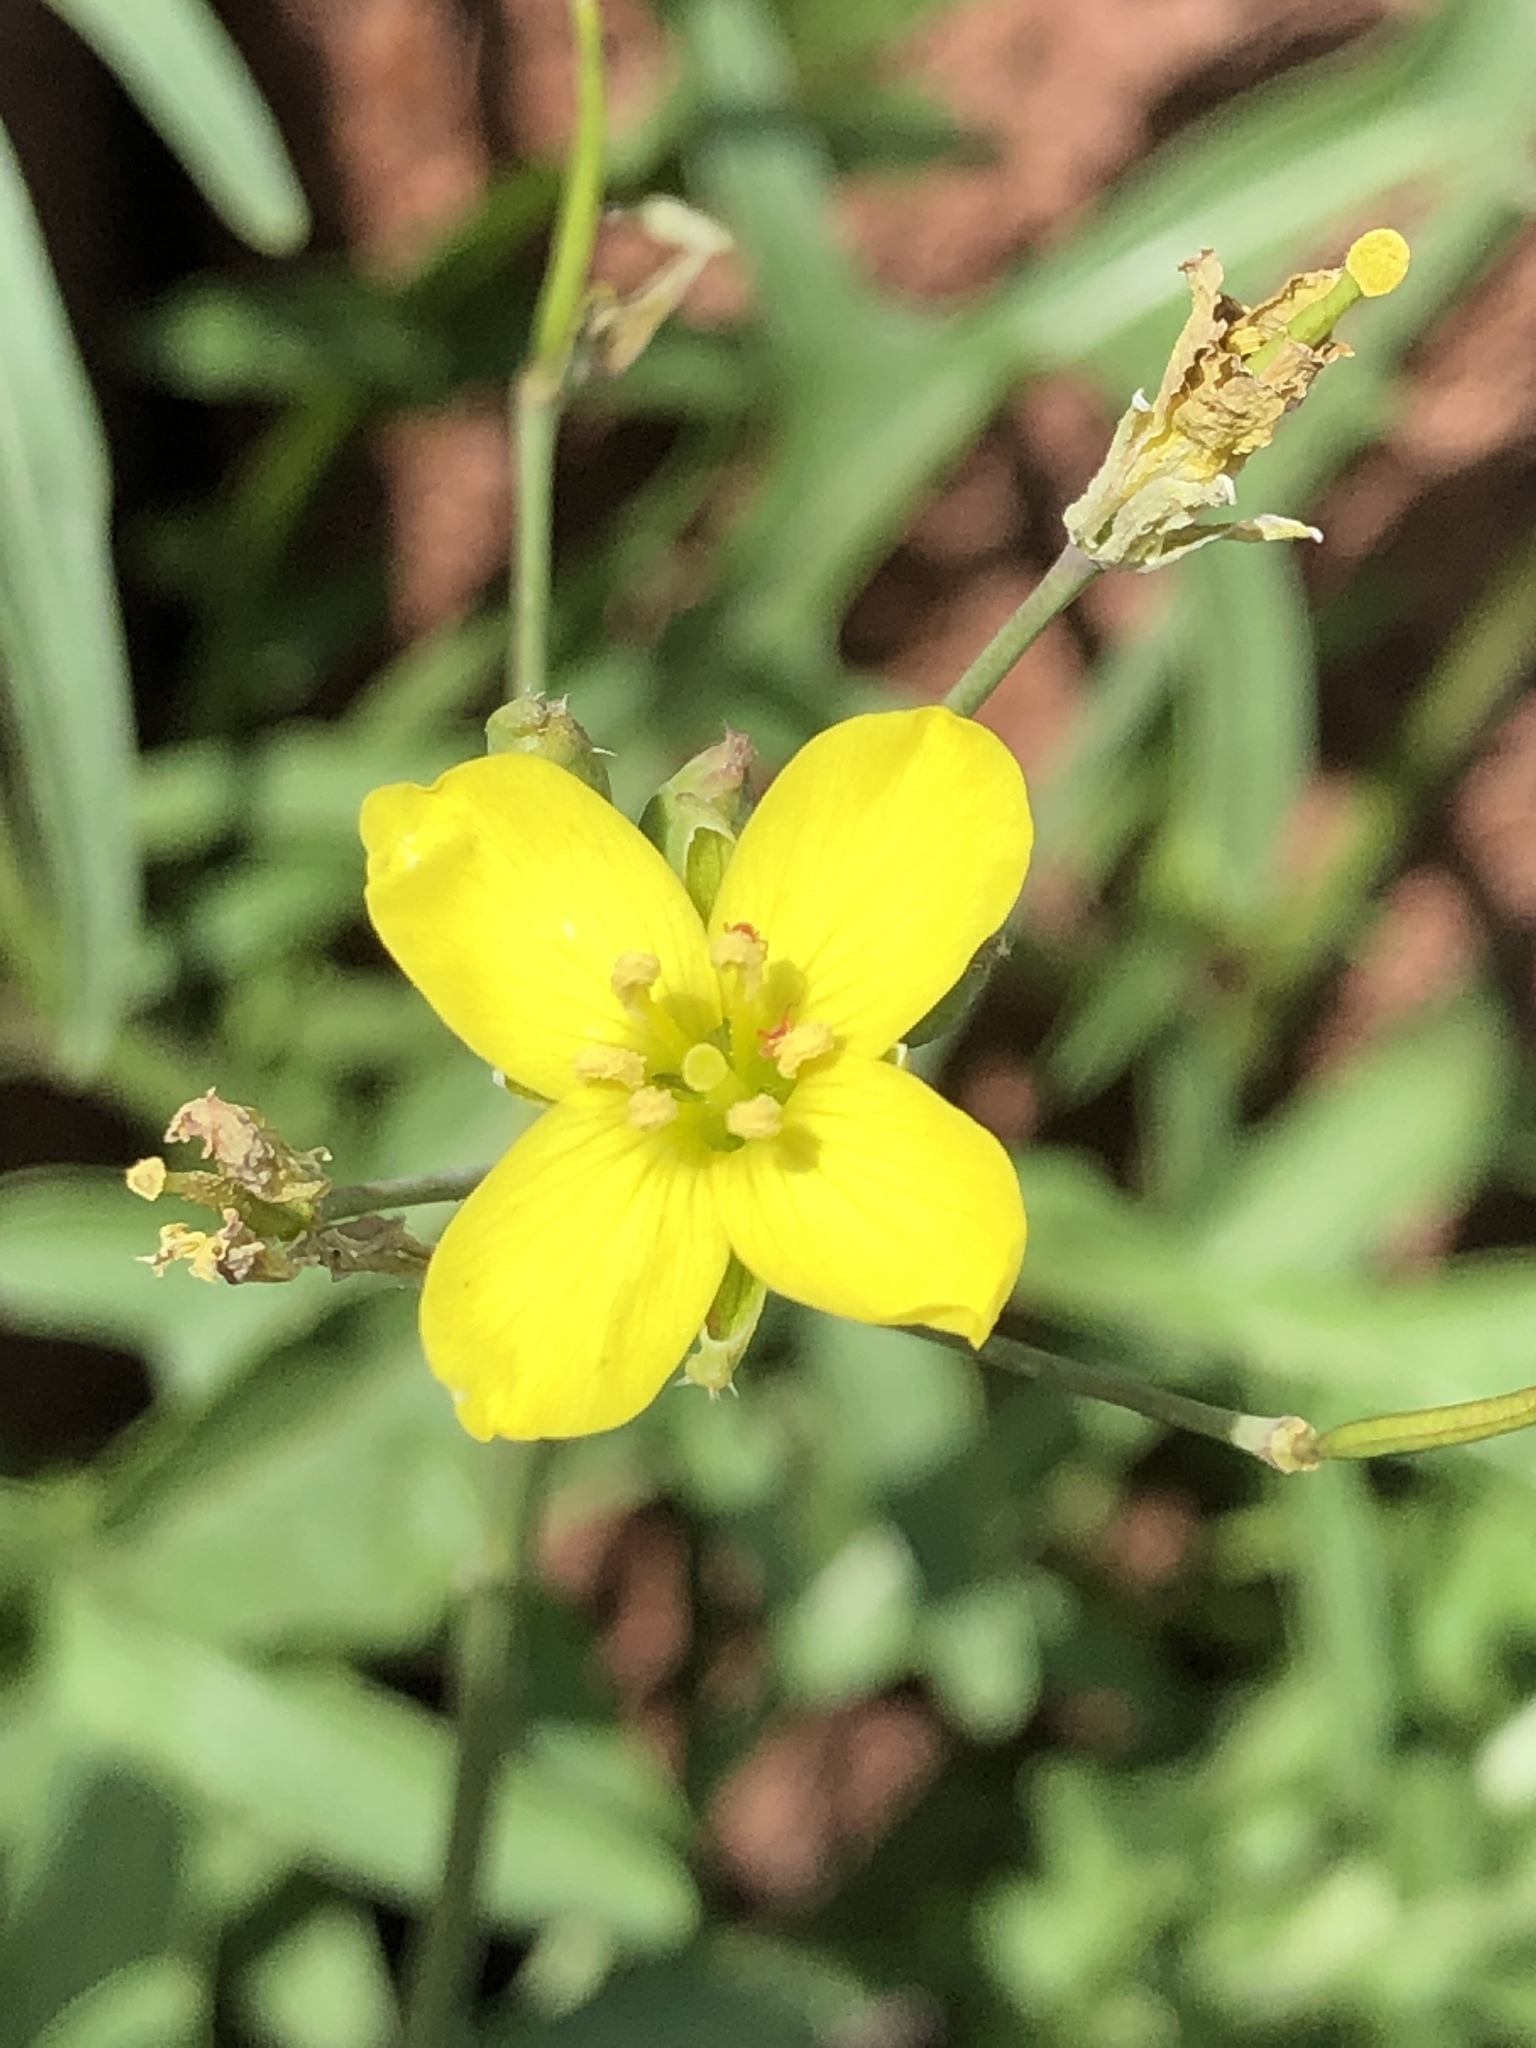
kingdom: Plantae
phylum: Tracheophyta
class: Magnoliopsida
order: Brassicales
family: Brassicaceae
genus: Diplotaxis
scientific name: Diplotaxis tenuifolia
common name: Perennial wall-rocket
